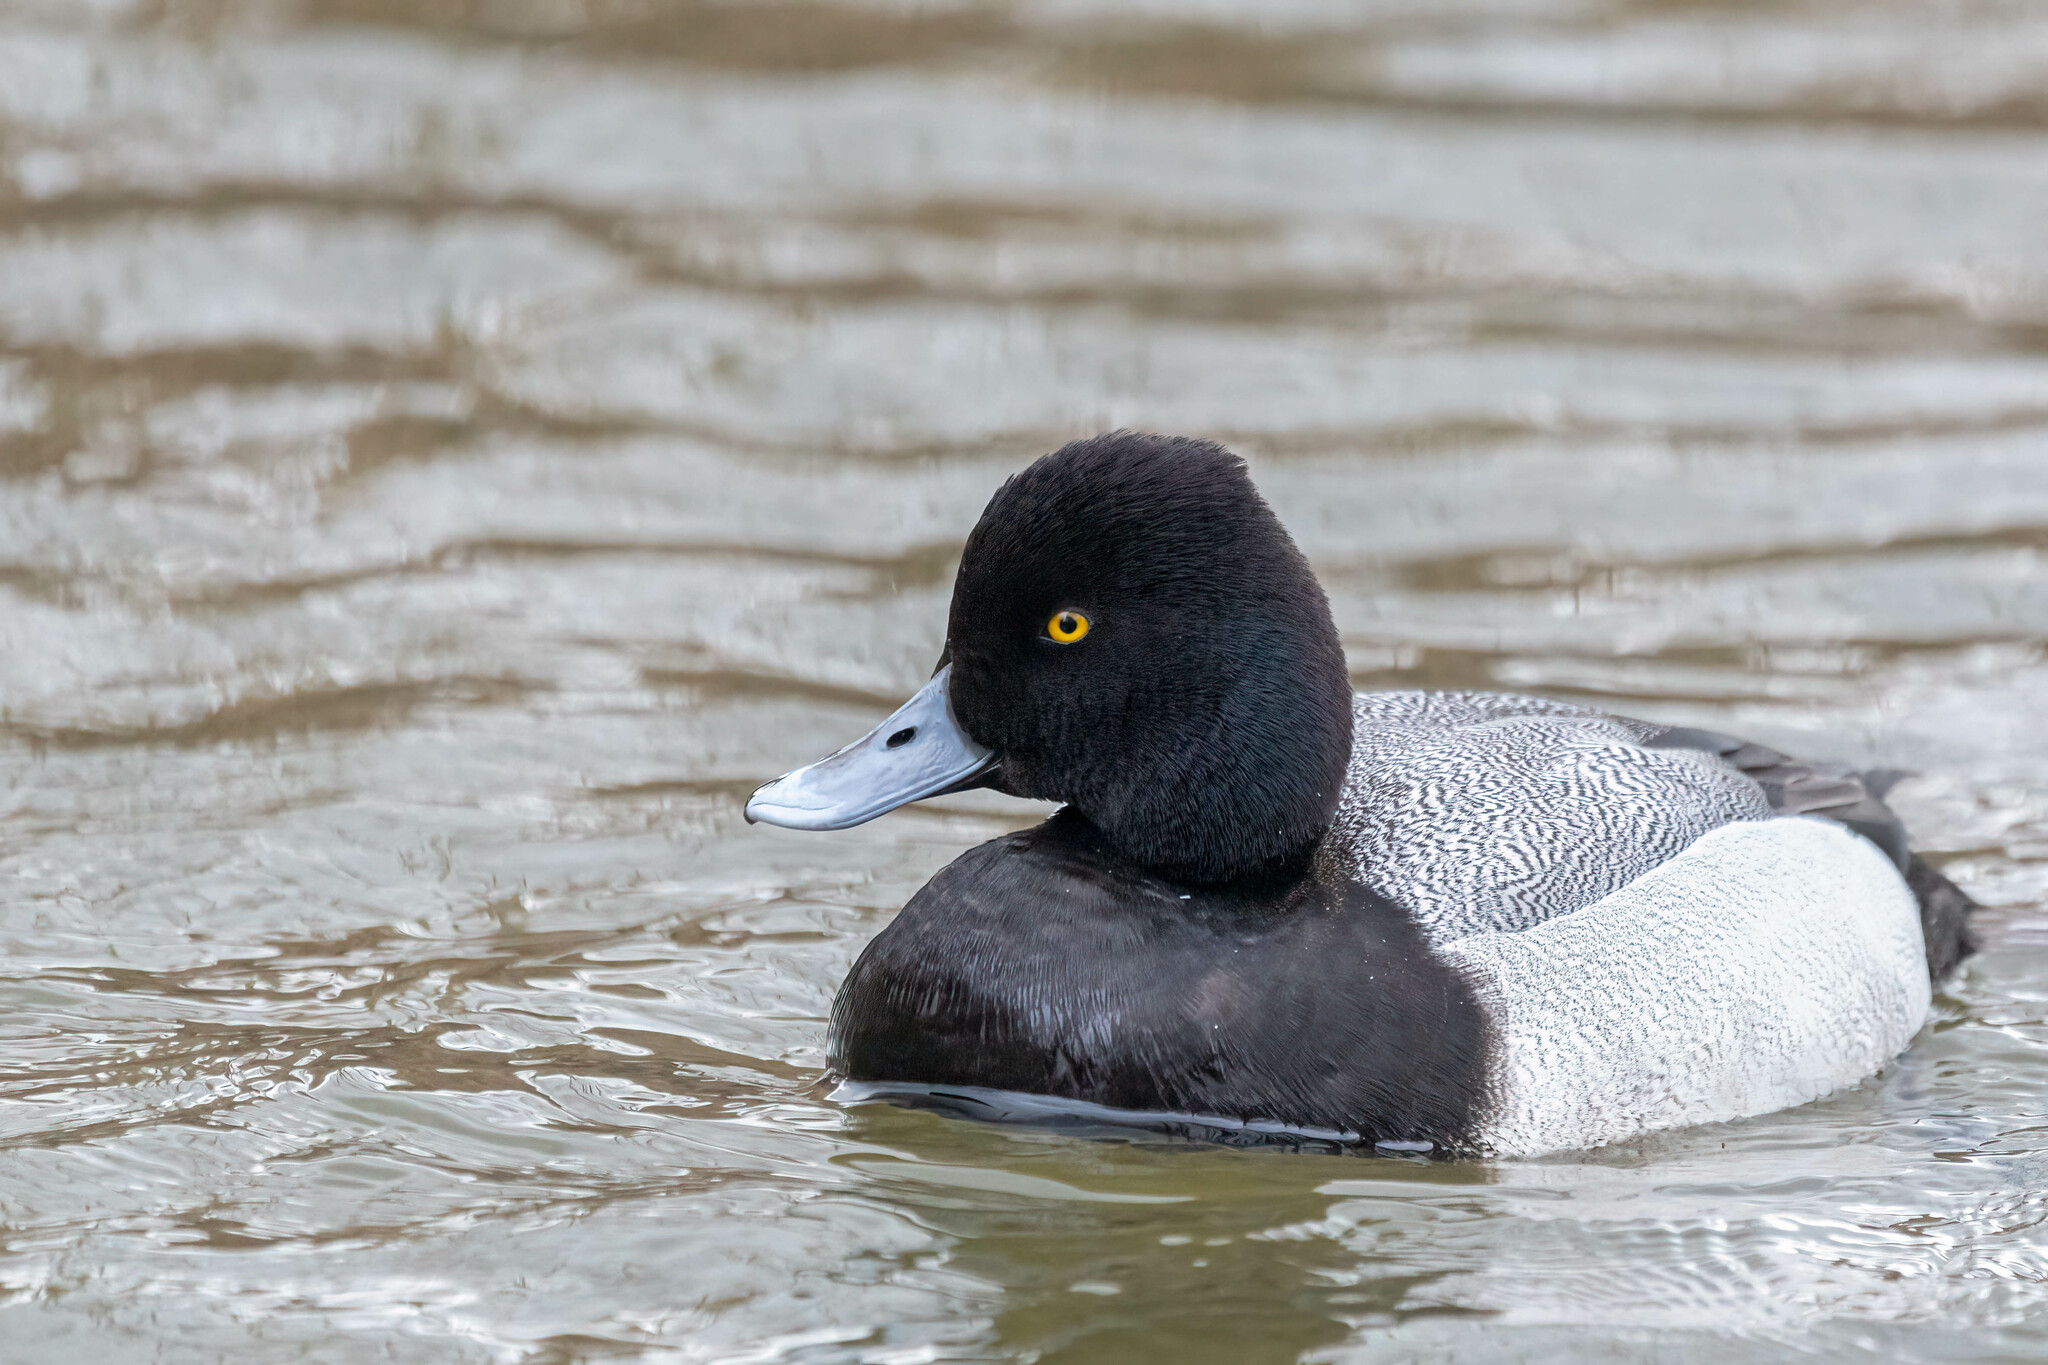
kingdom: Animalia
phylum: Chordata
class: Aves
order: Anseriformes
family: Anatidae
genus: Aythya
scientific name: Aythya affinis
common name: Lesser scaup
